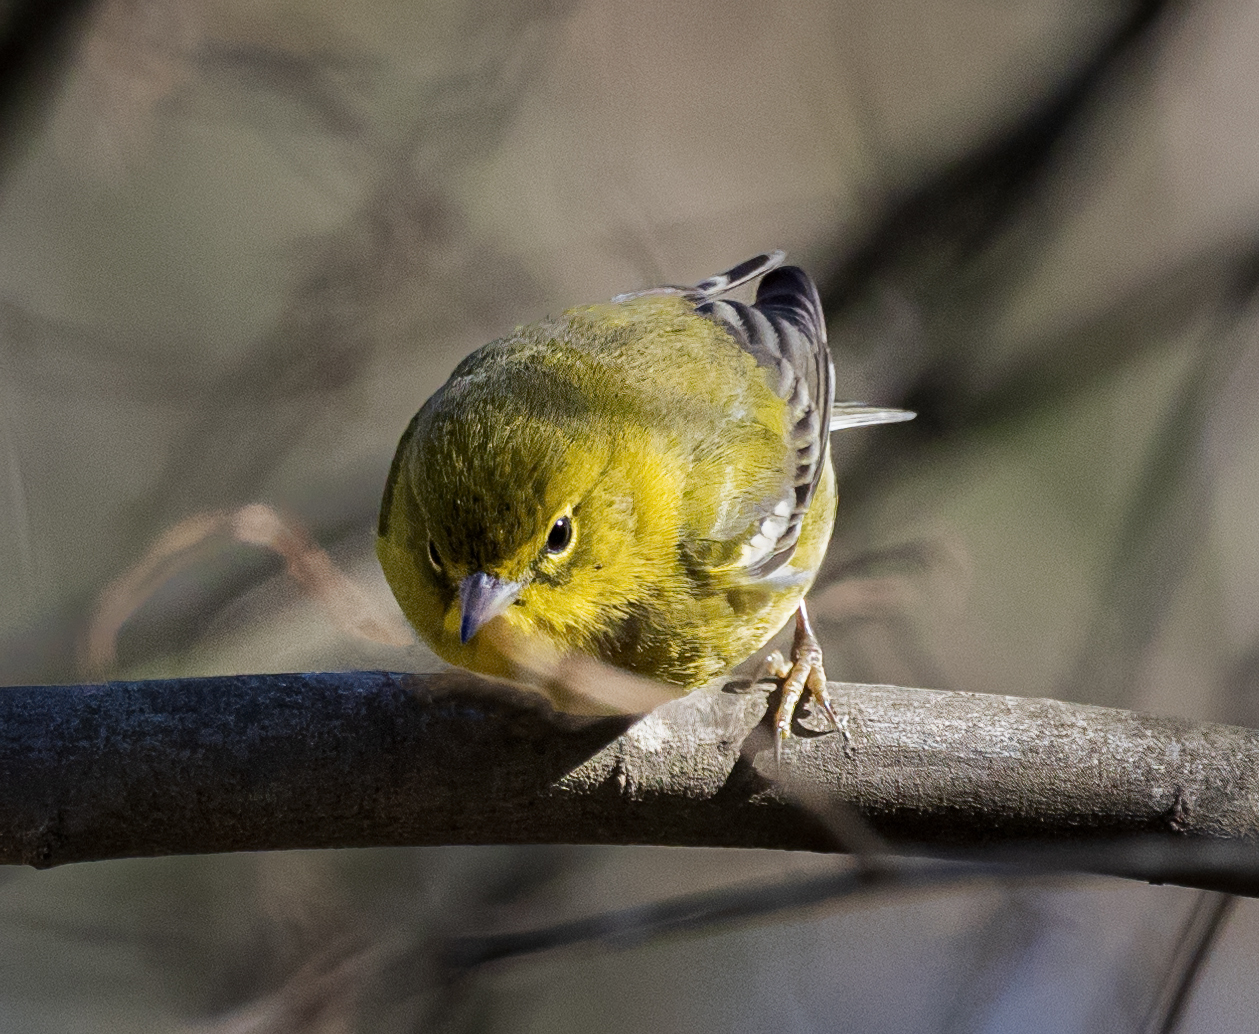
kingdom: Animalia
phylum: Chordata
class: Aves
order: Passeriformes
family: Parulidae
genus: Setophaga
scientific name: Setophaga pinus
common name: Pine warbler
